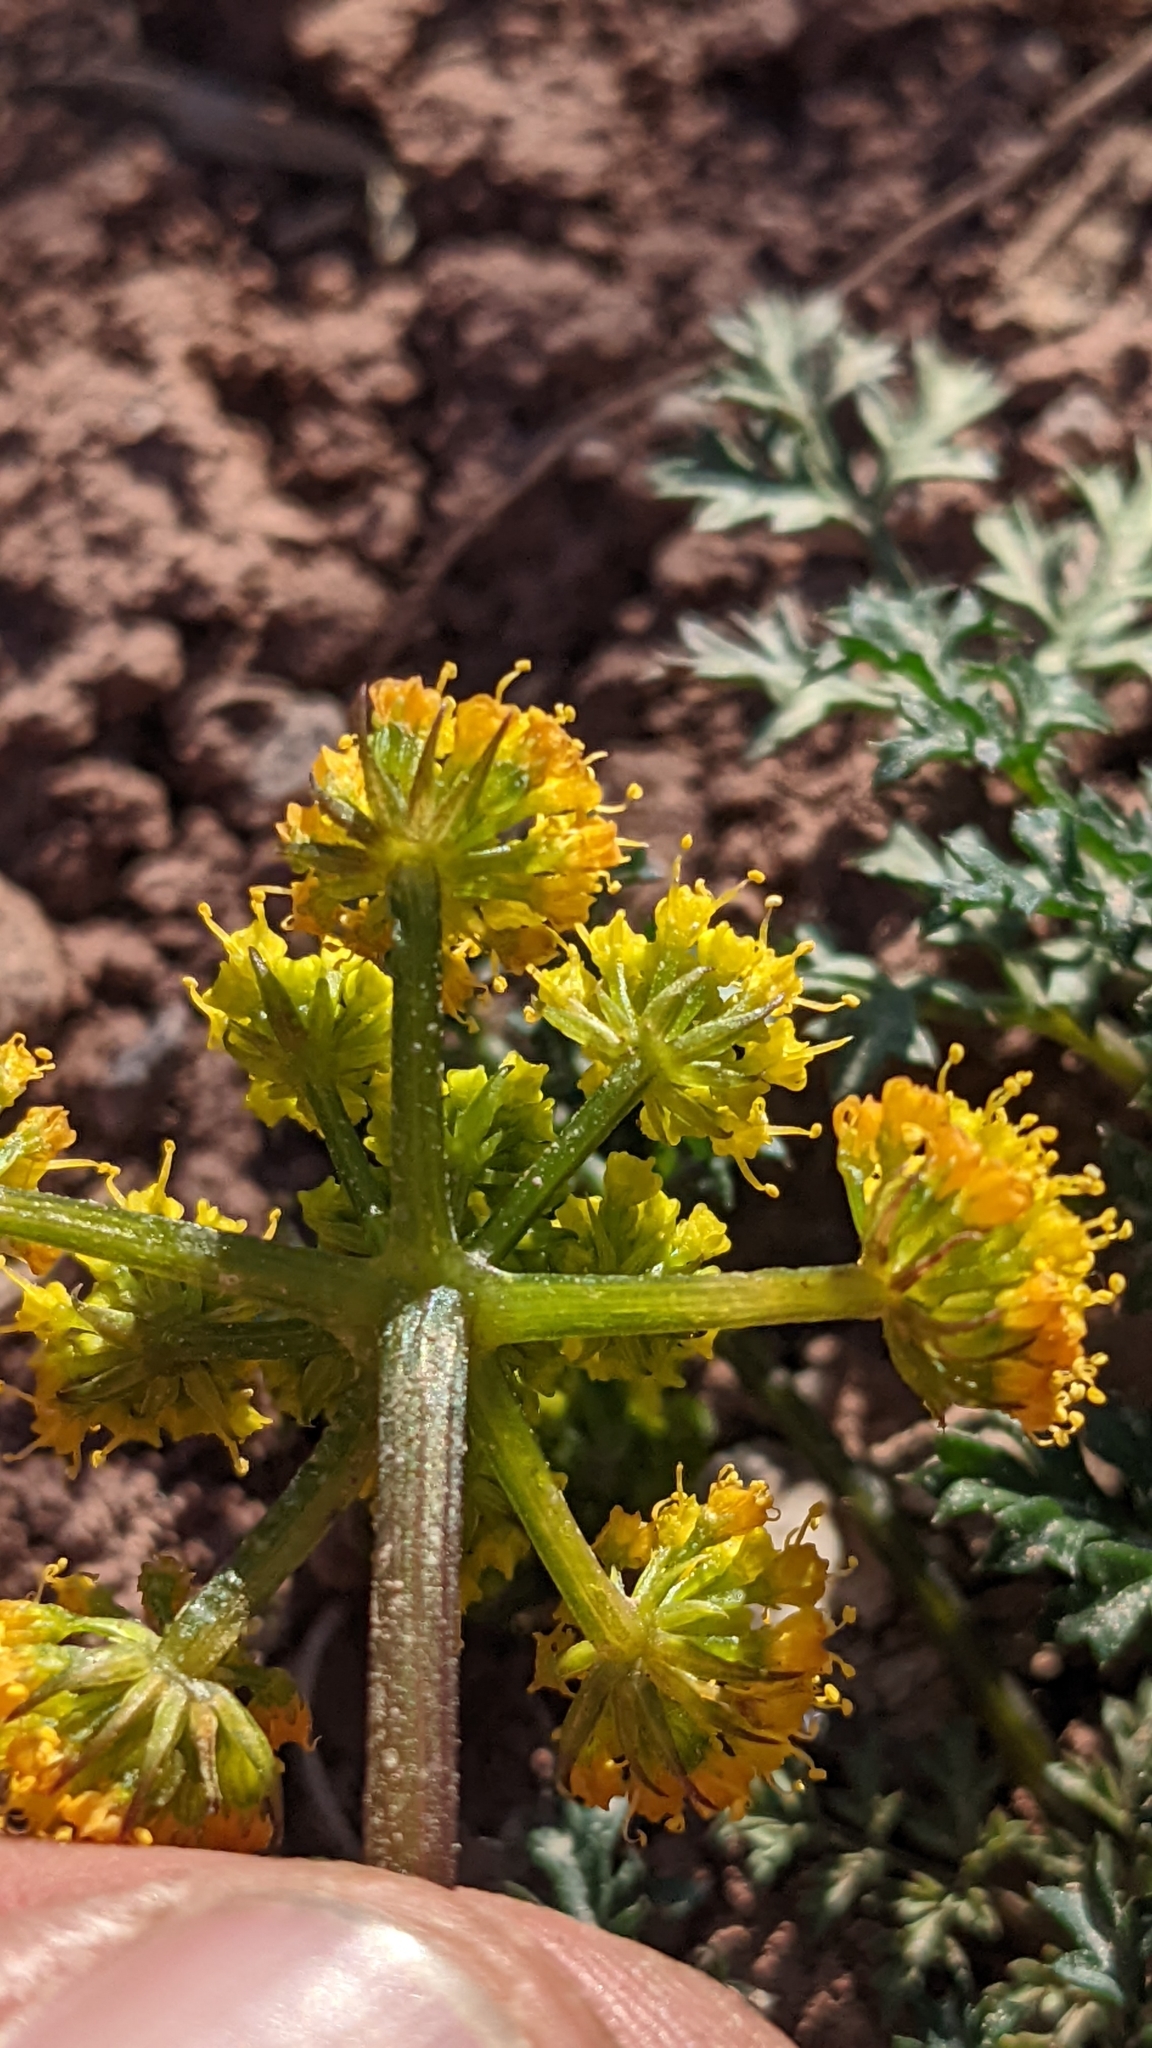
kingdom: Plantae
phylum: Tracheophyta
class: Magnoliopsida
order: Apiales
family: Apiaceae
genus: Aulospermum
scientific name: Aulospermum purpureum
